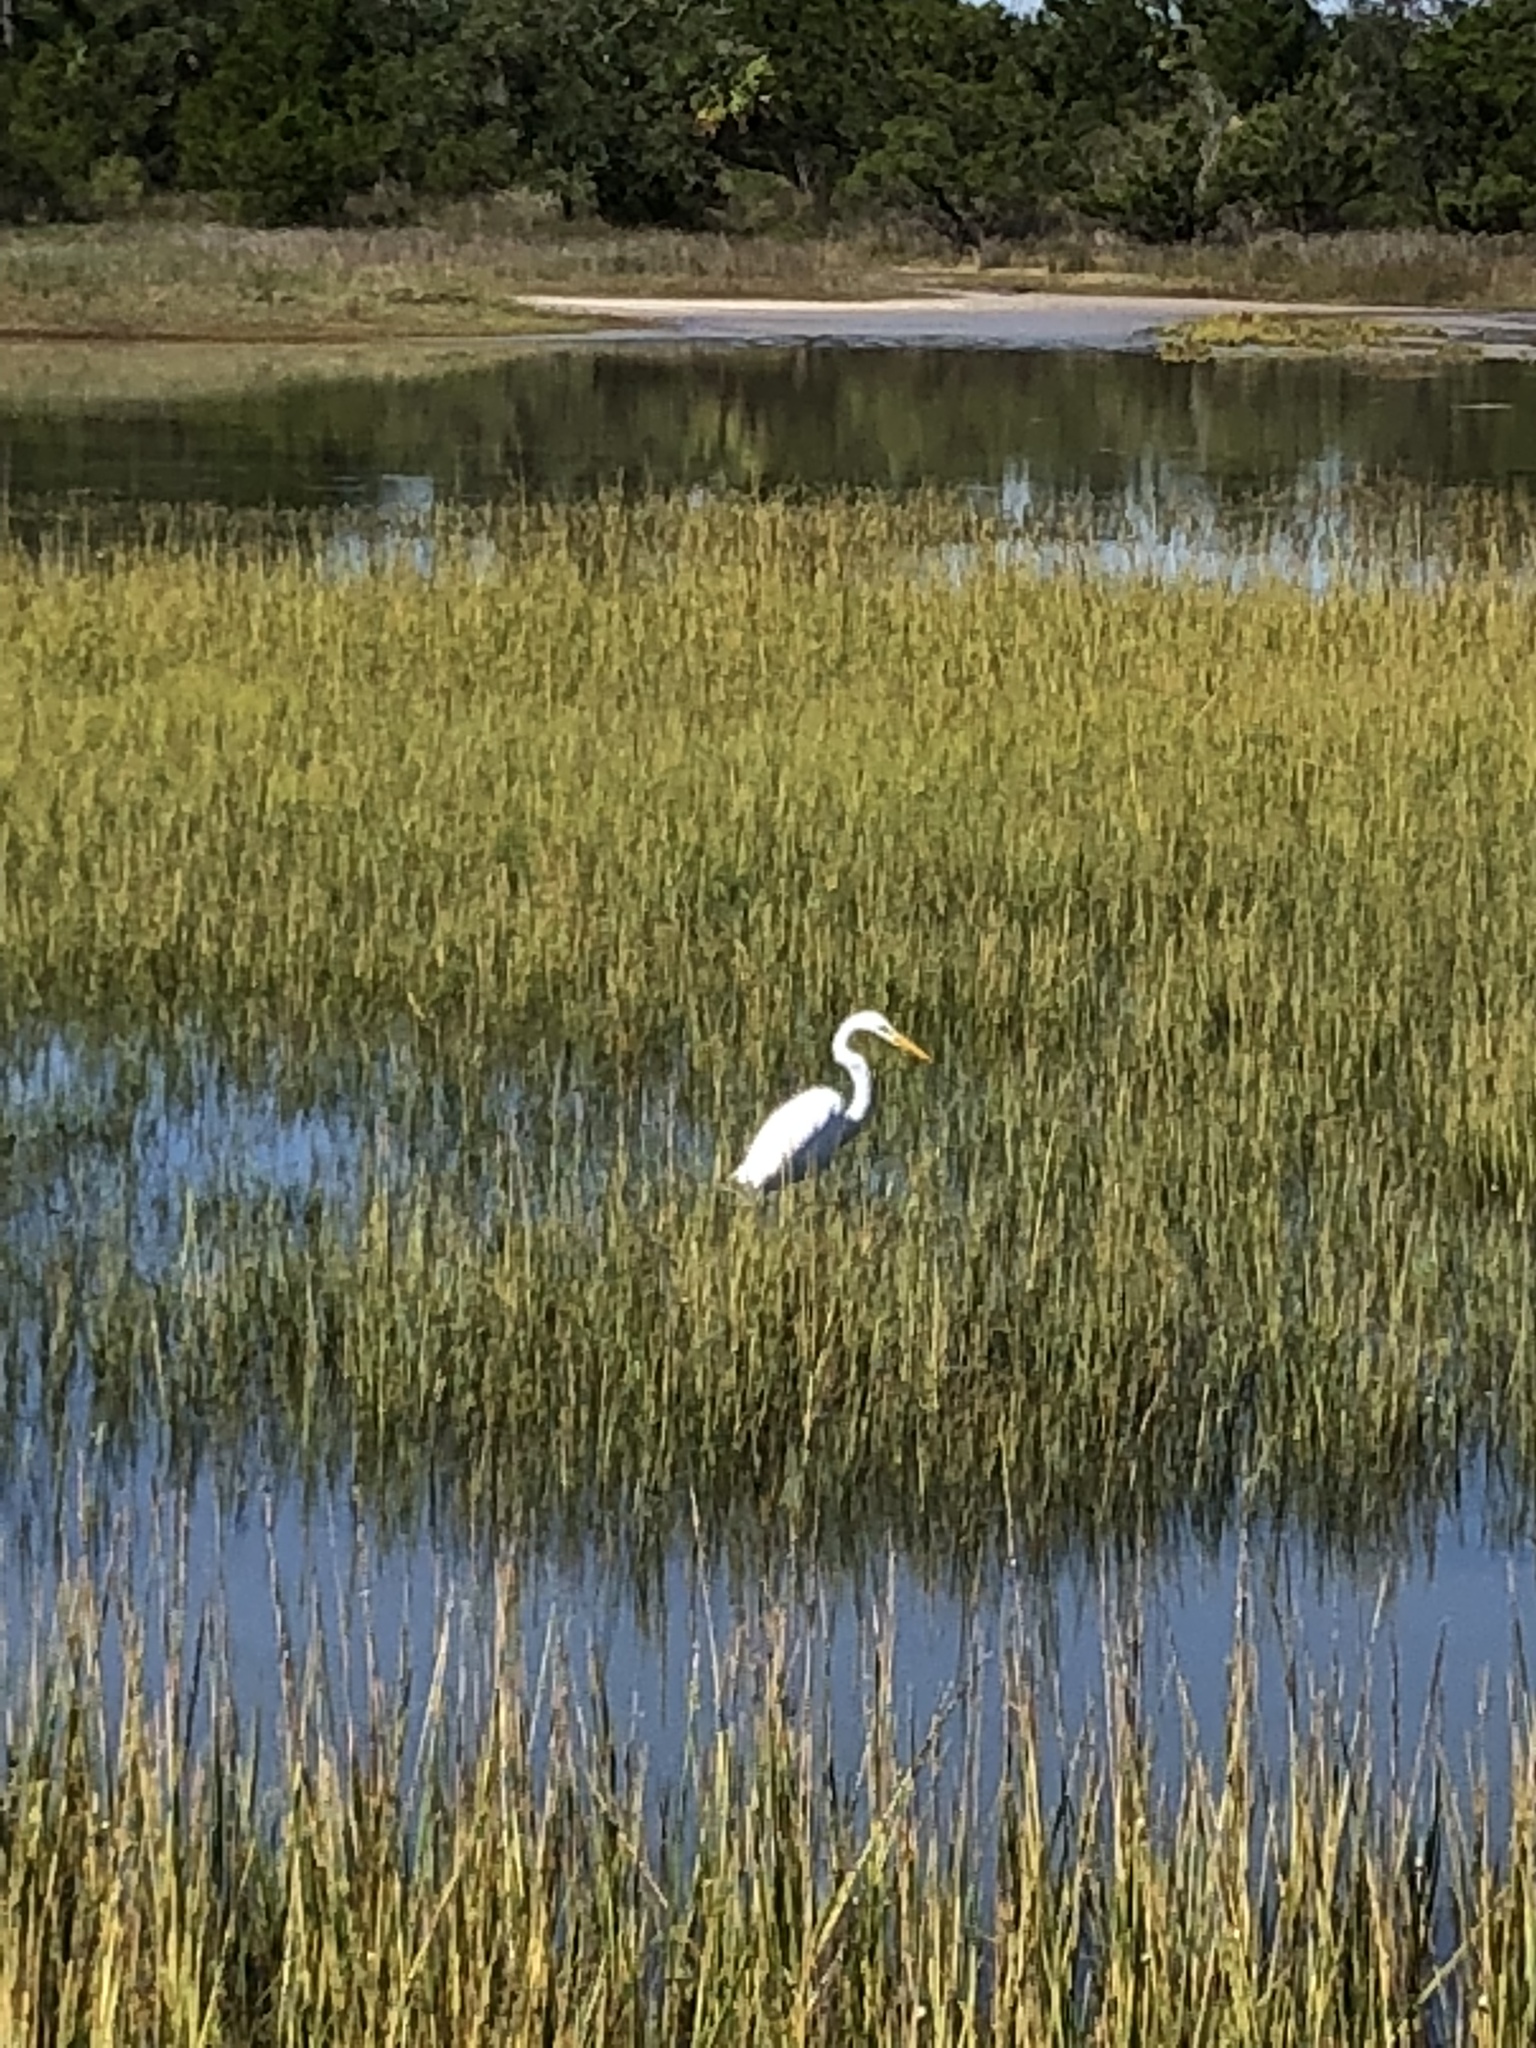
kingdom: Animalia
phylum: Chordata
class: Aves
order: Pelecaniformes
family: Ardeidae
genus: Ardea
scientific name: Ardea alba
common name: Great egret
